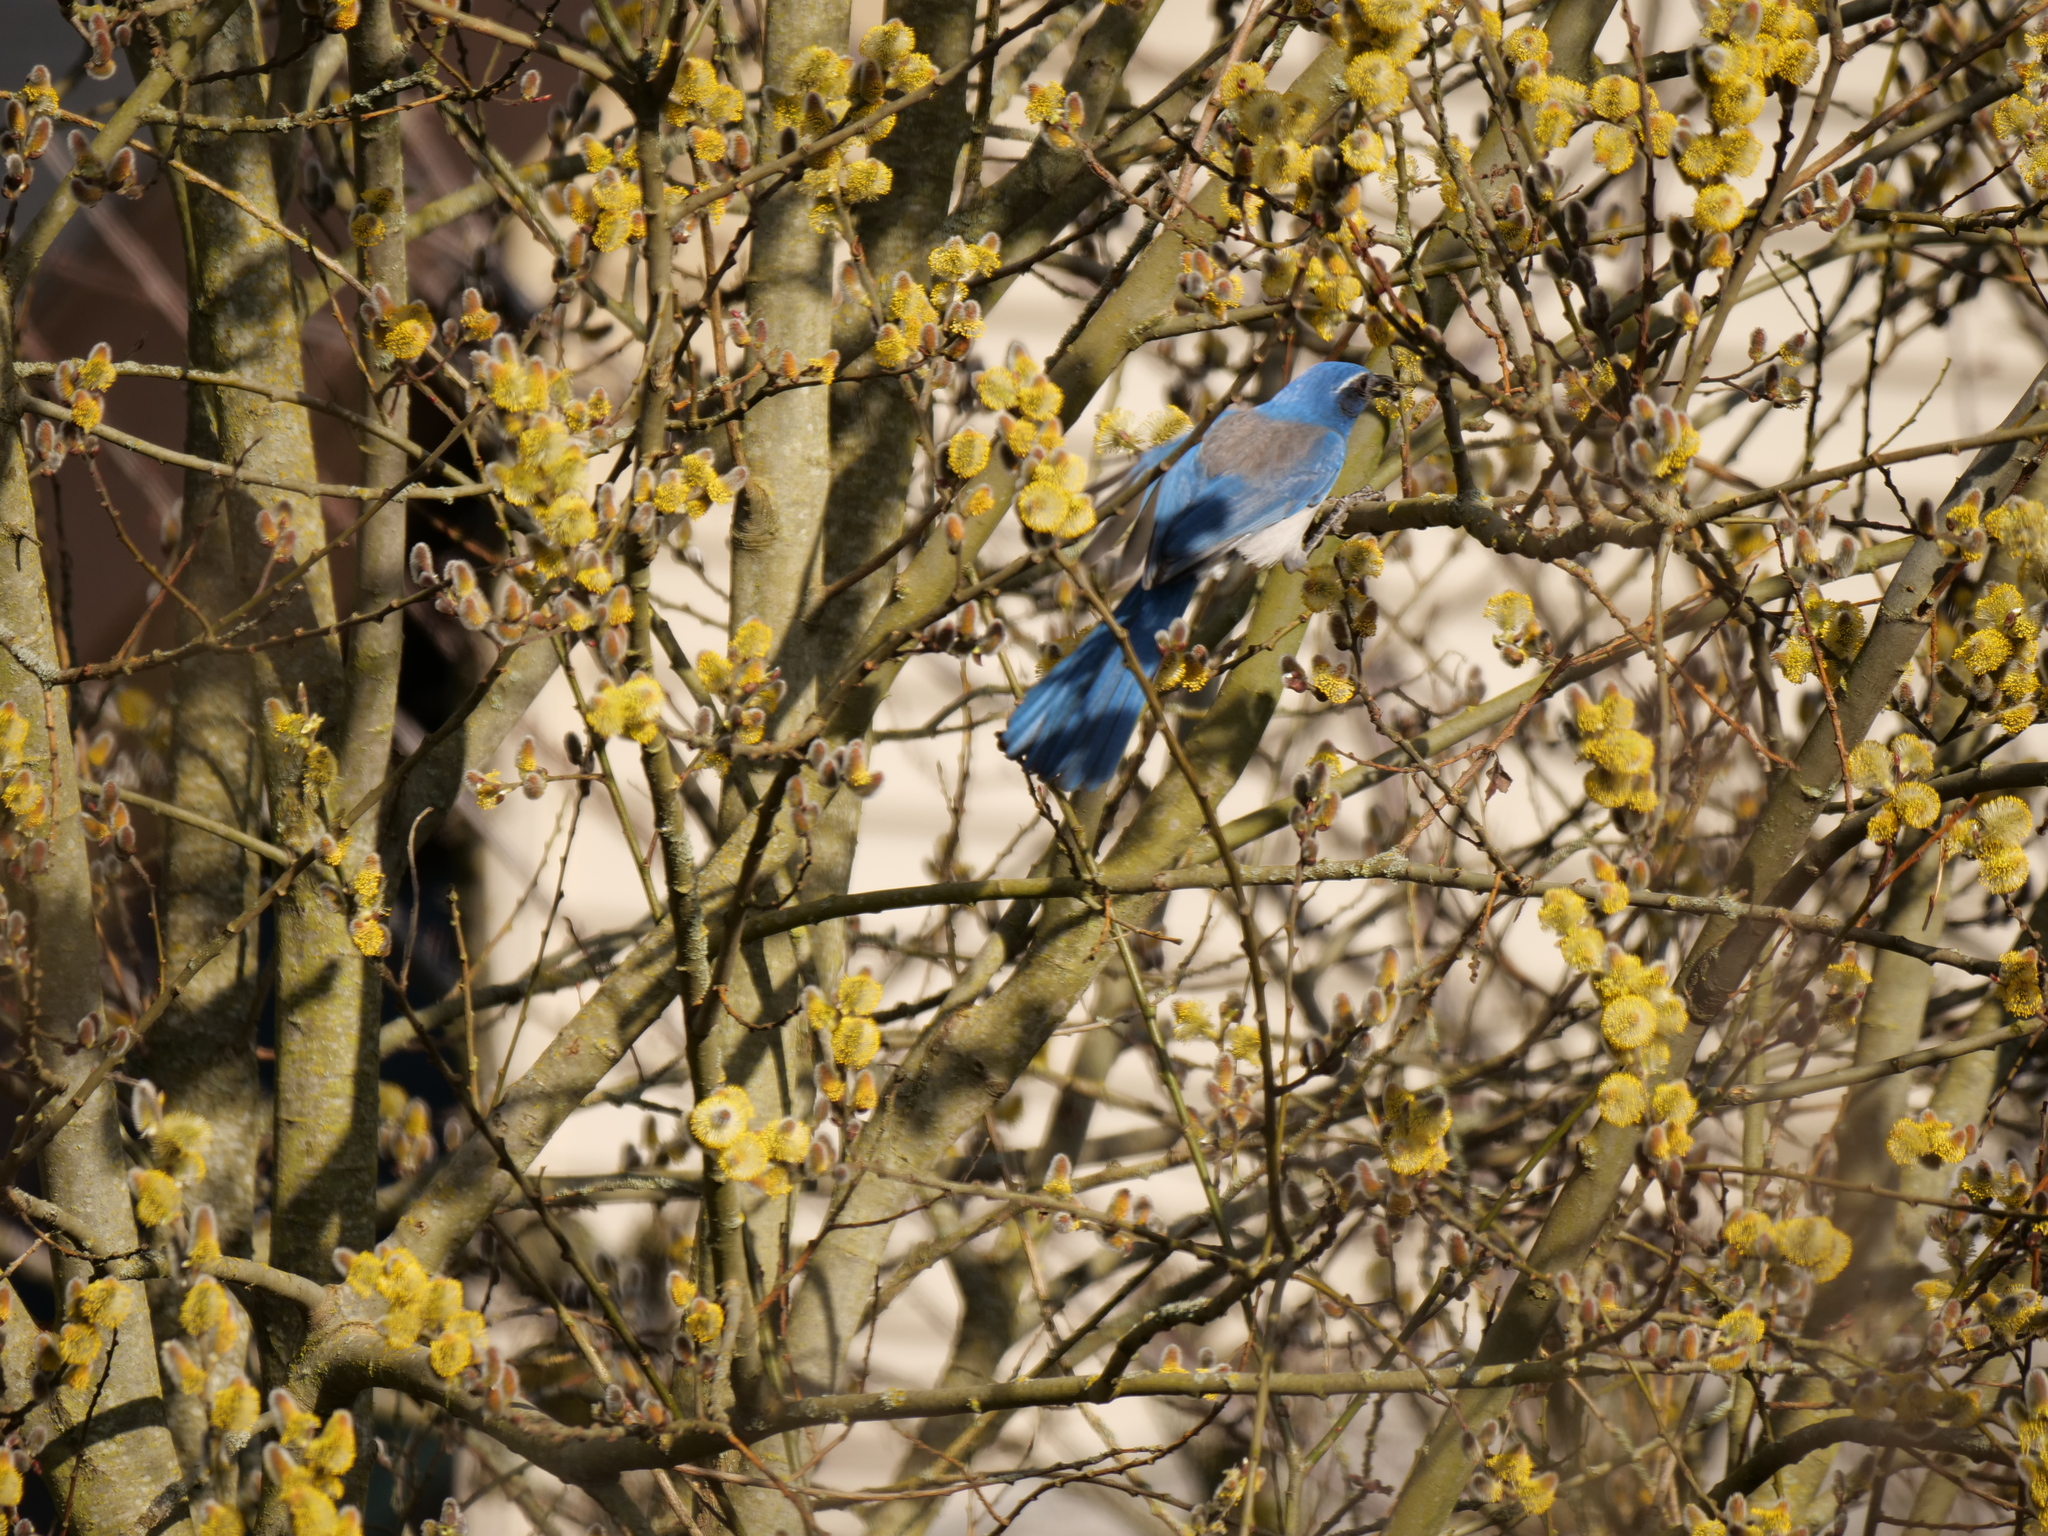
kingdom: Animalia
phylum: Chordata
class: Aves
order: Passeriformes
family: Corvidae
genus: Aphelocoma
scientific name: Aphelocoma californica
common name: California scrub-jay
